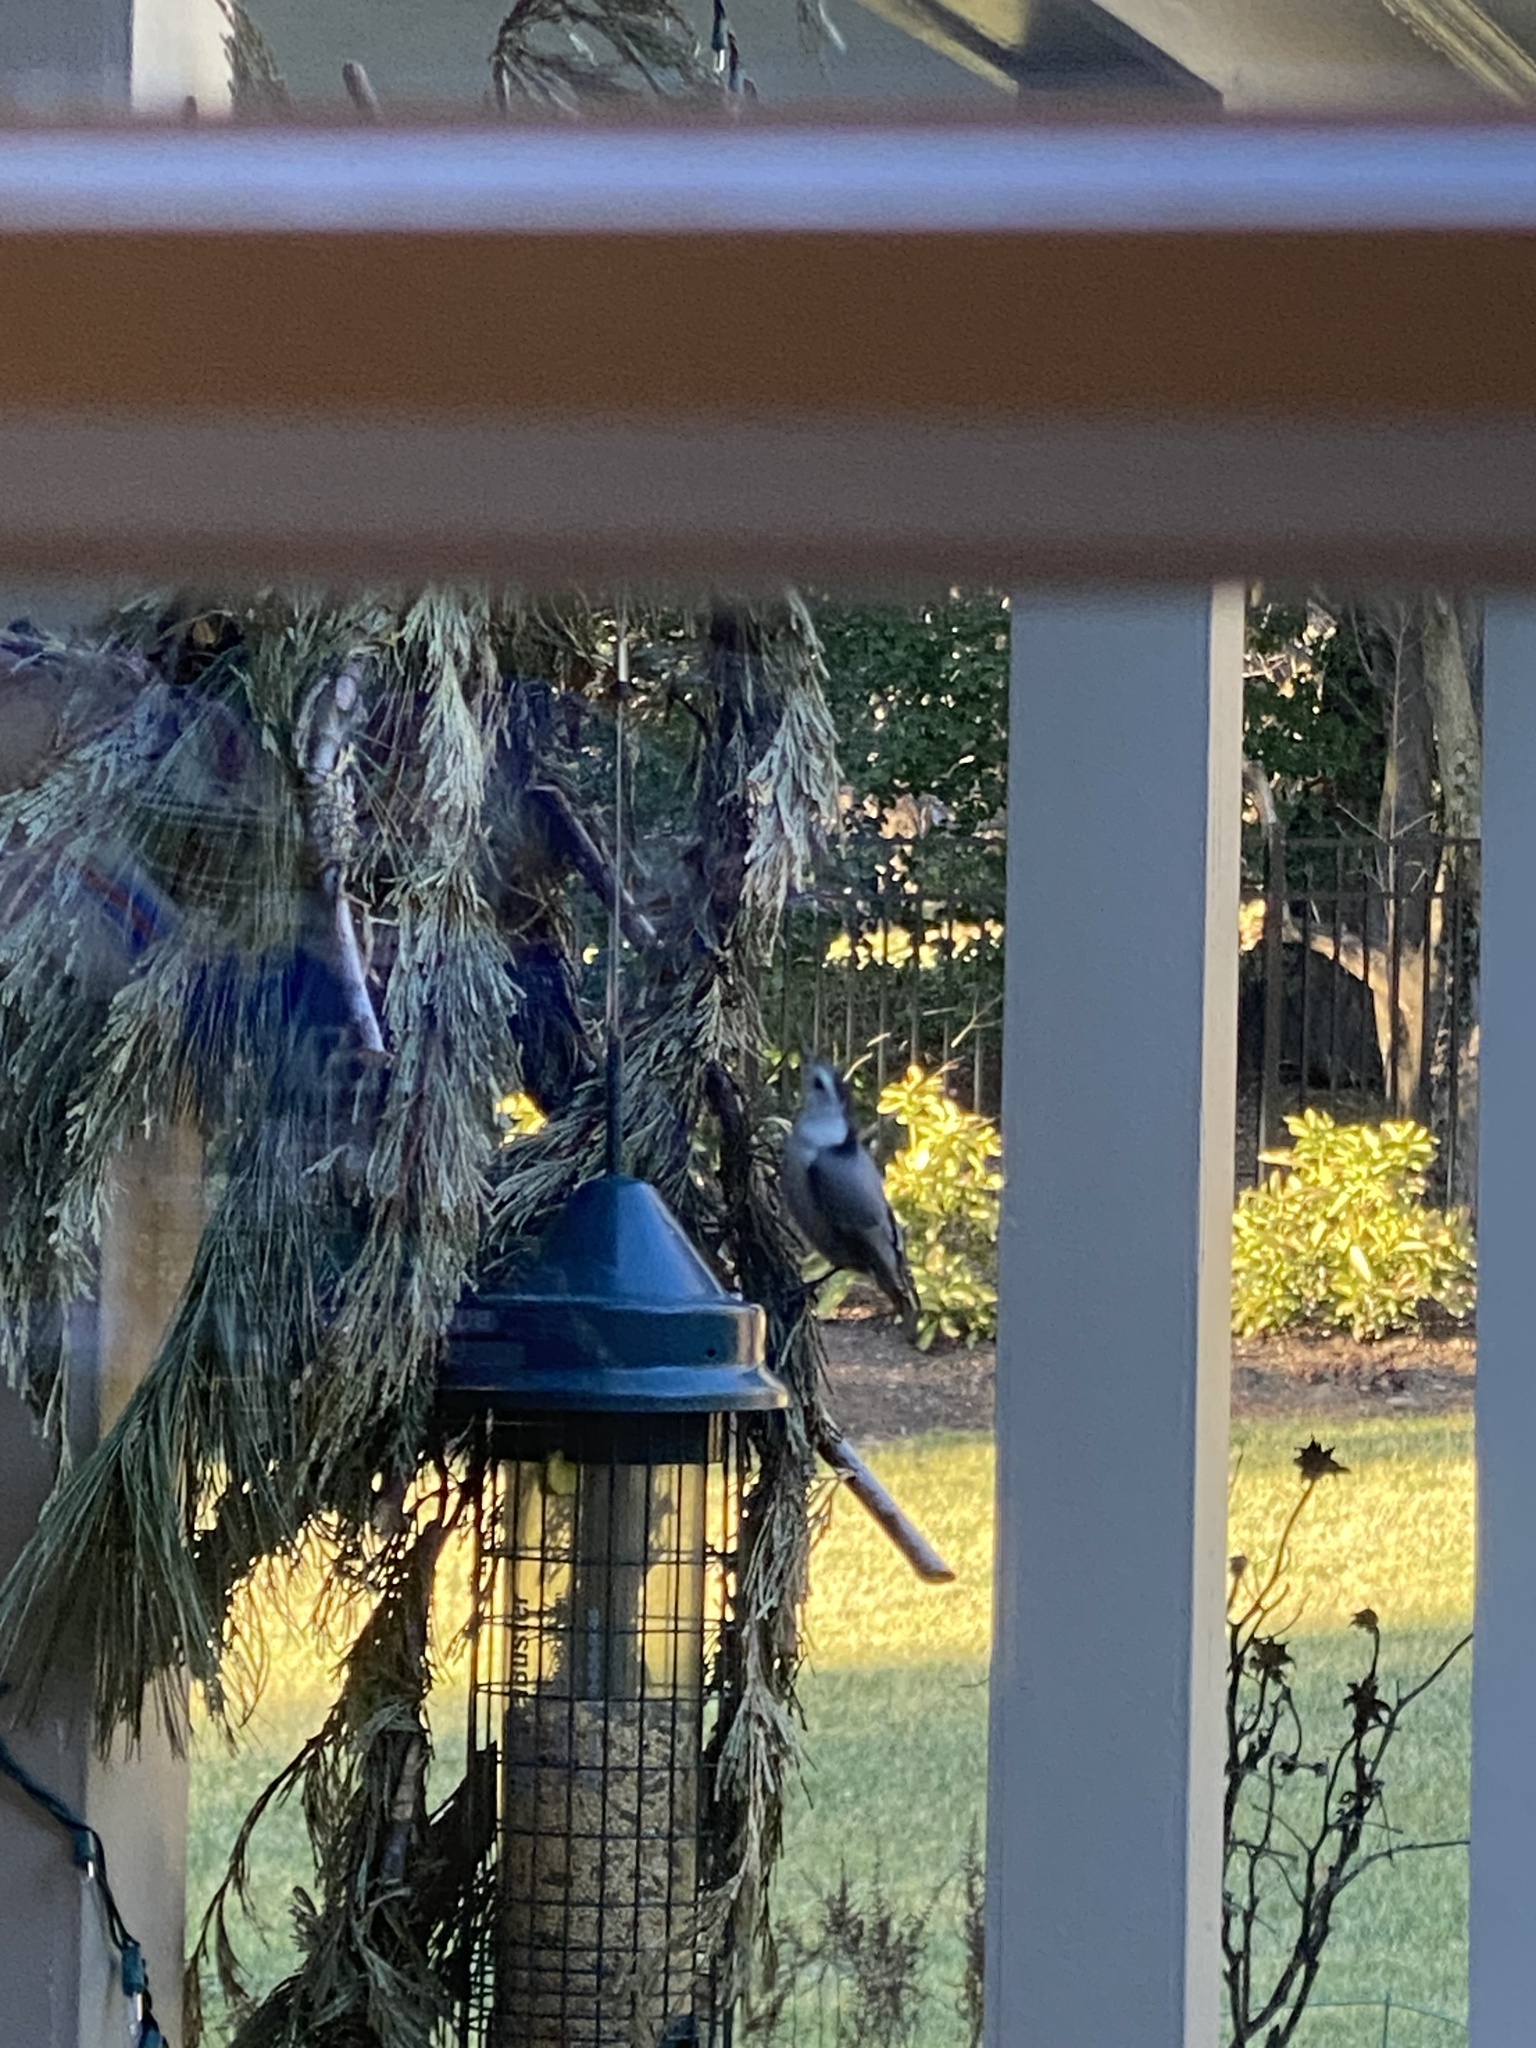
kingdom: Animalia
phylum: Chordata
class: Aves
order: Passeriformes
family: Sittidae
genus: Sitta
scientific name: Sitta carolinensis
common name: White-breasted nuthatch
